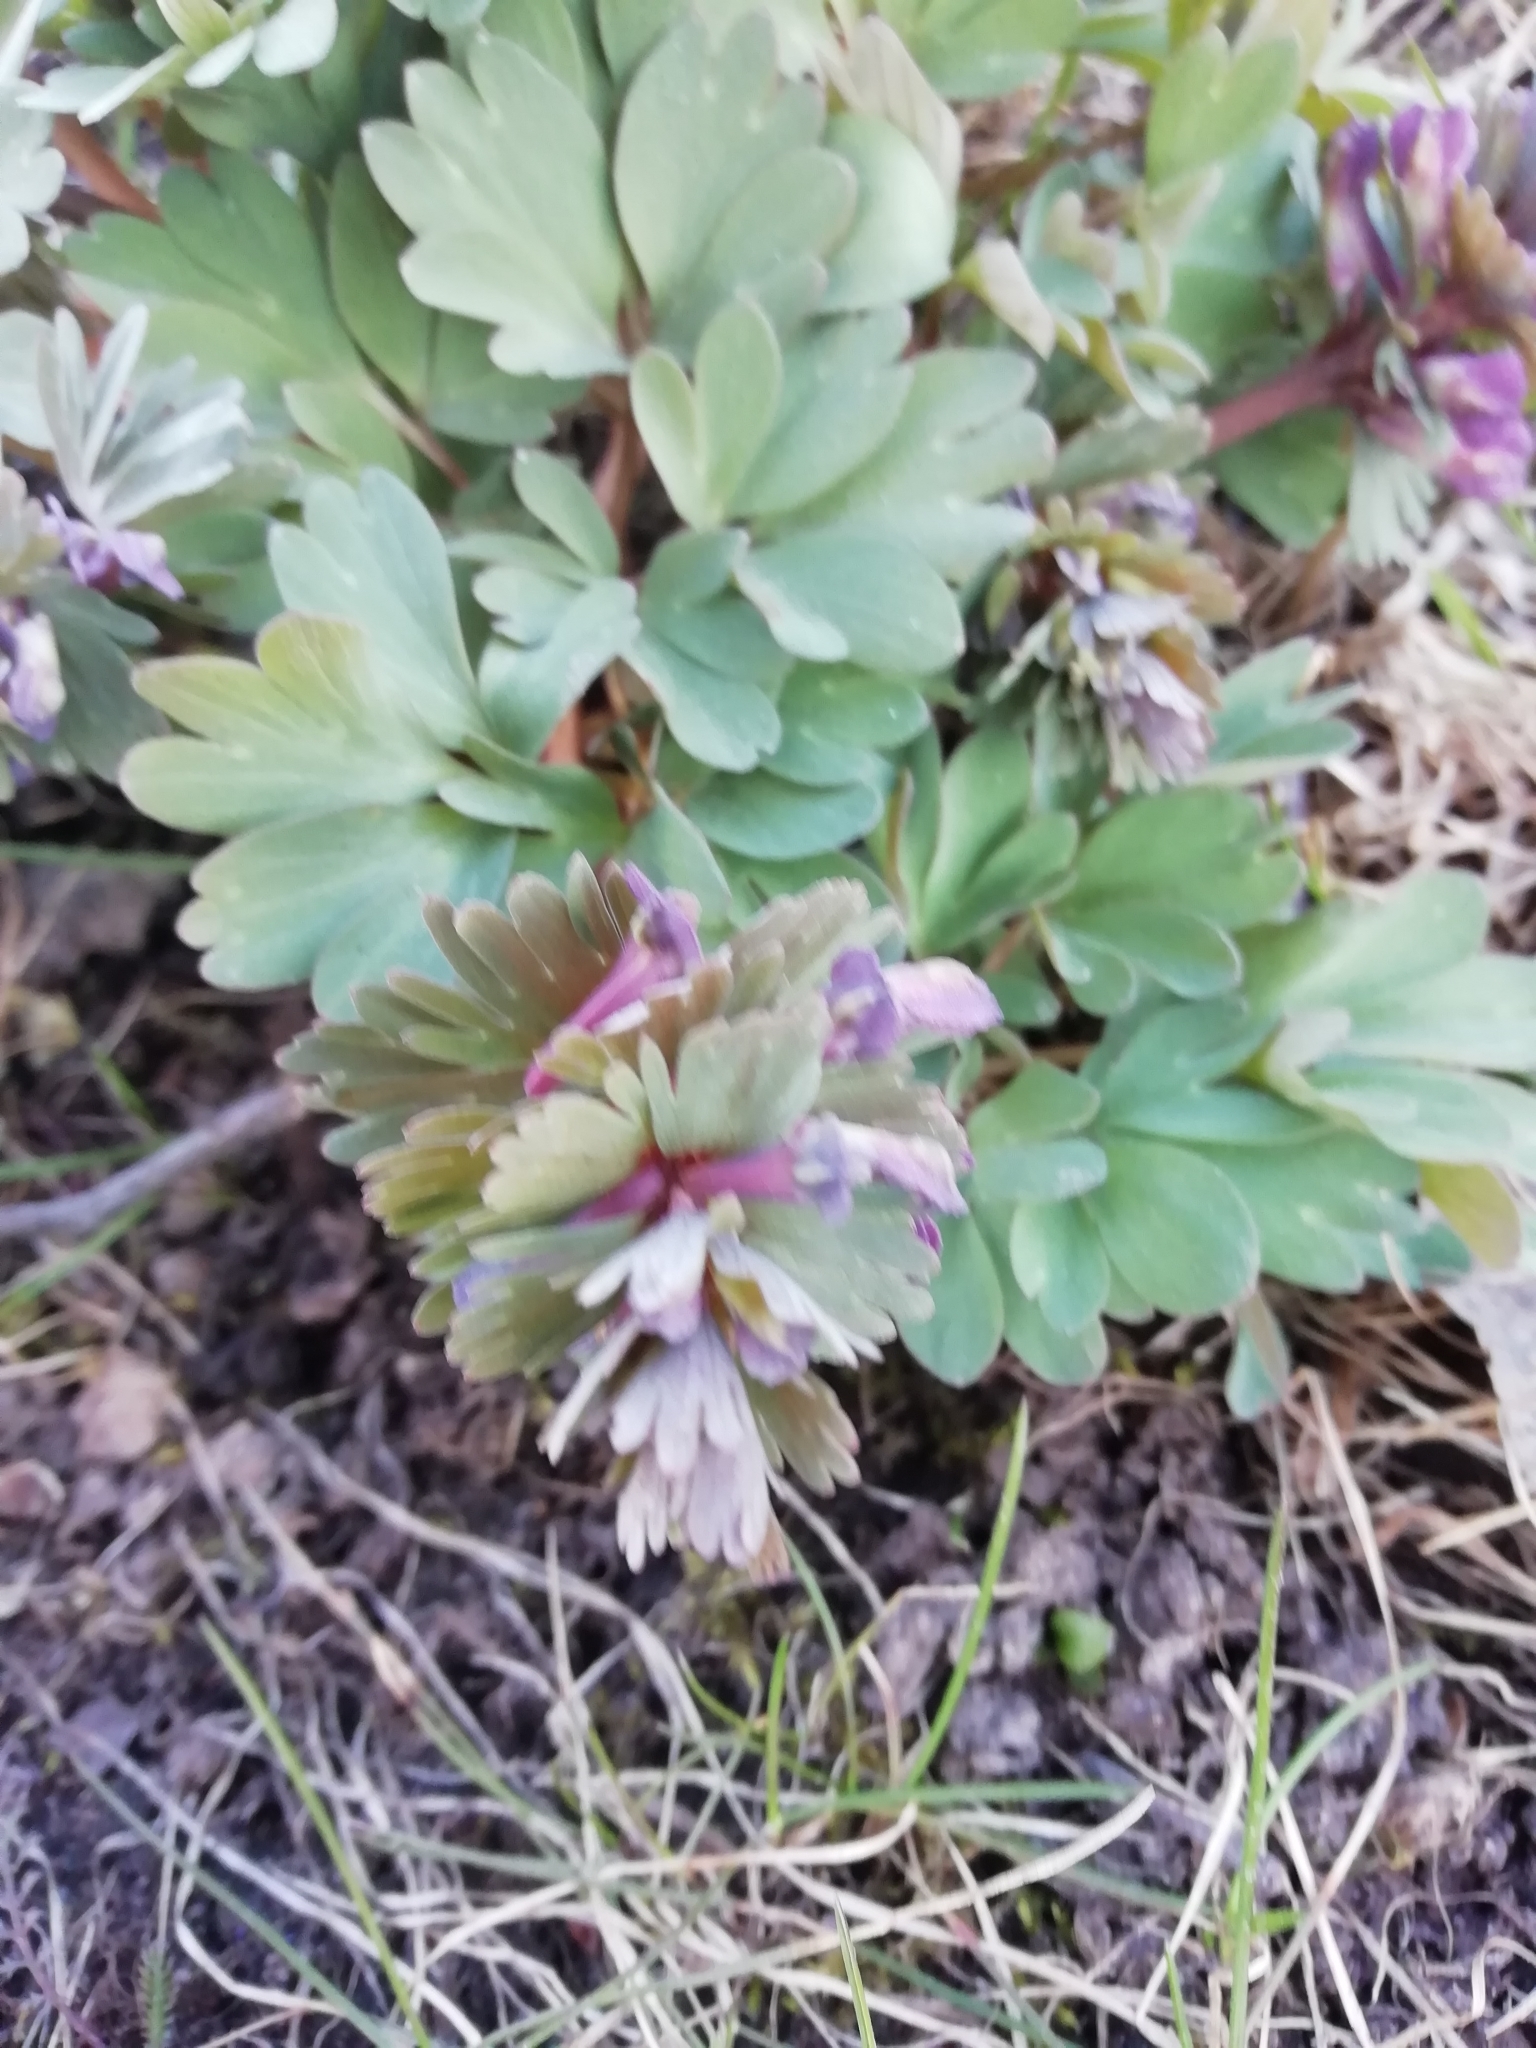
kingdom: Plantae
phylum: Tracheophyta
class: Magnoliopsida
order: Ranunculales
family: Papaveraceae
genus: Corydalis
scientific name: Corydalis solida
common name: Bird-in-a-bush
